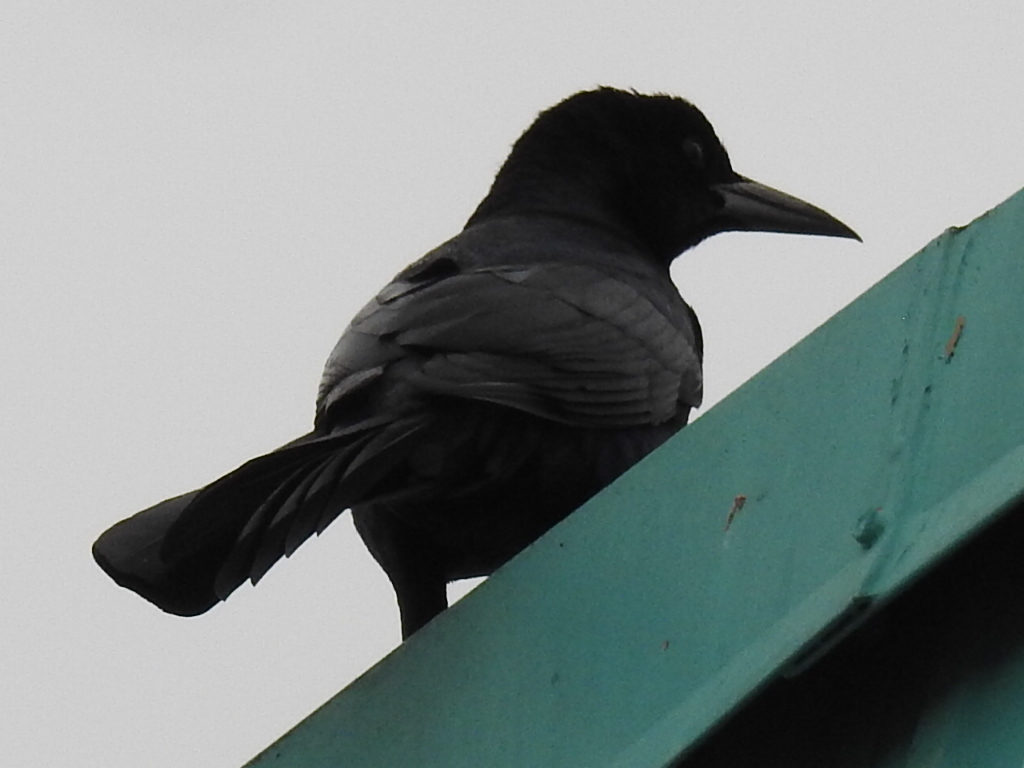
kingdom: Animalia
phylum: Chordata
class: Aves
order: Passeriformes
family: Icteridae
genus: Quiscalus
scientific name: Quiscalus major
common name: Boat-tailed grackle
